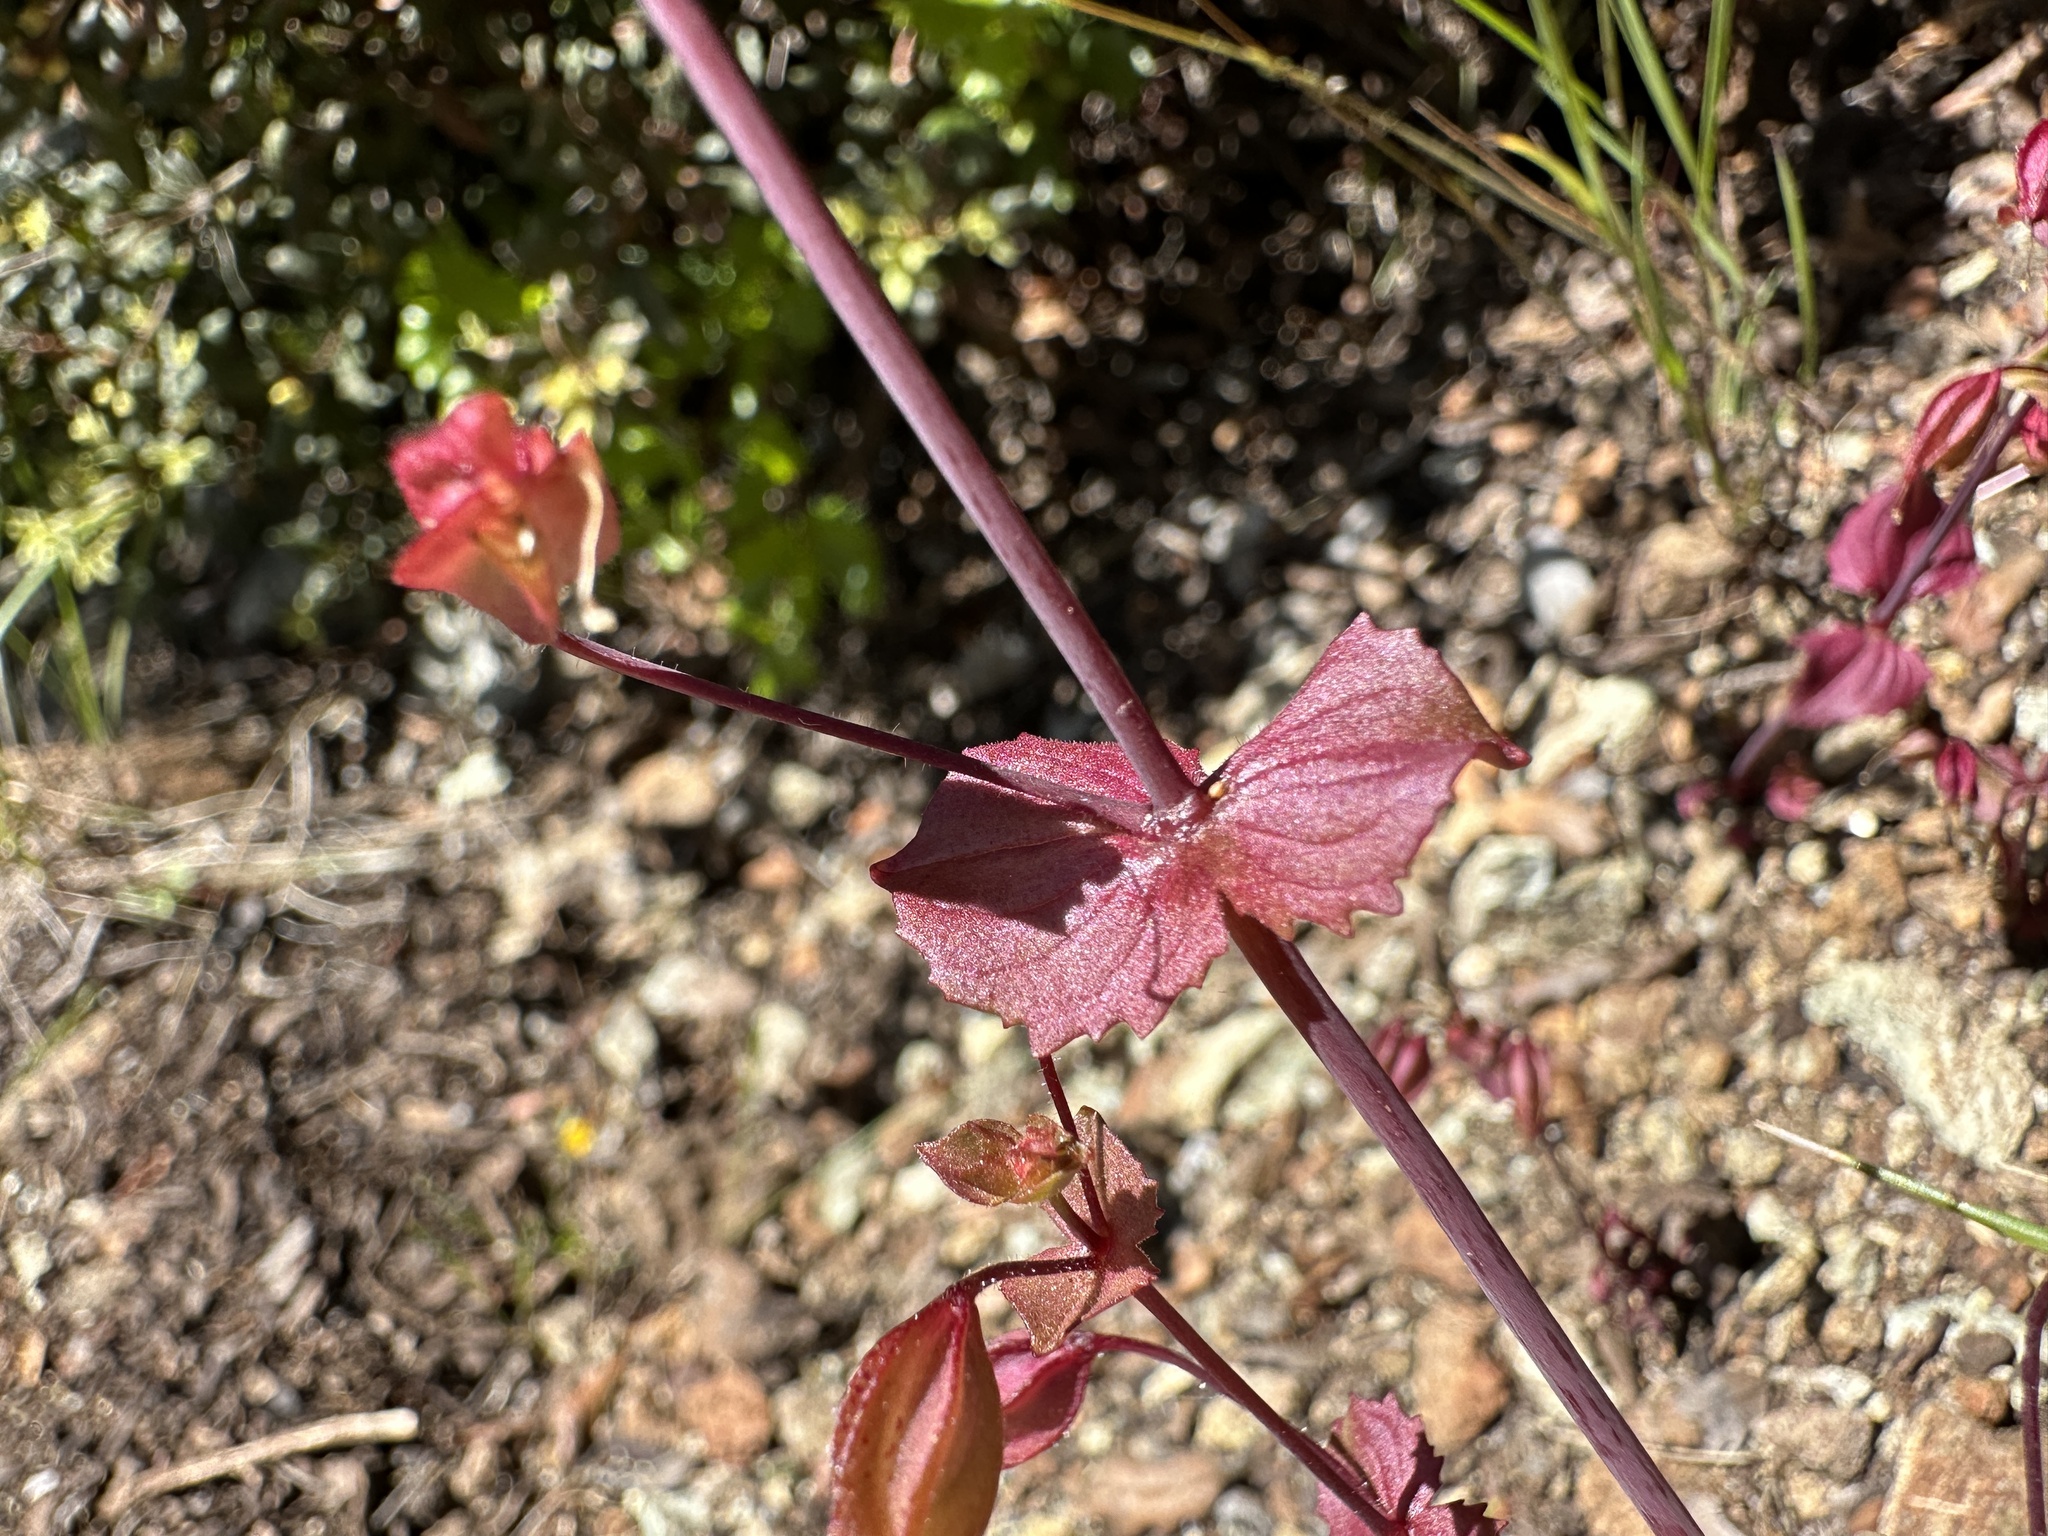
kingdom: Plantae
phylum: Tracheophyta
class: Magnoliopsida
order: Lamiales
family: Phrymaceae
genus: Erythranthe
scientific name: Erythranthe serpentinicola
